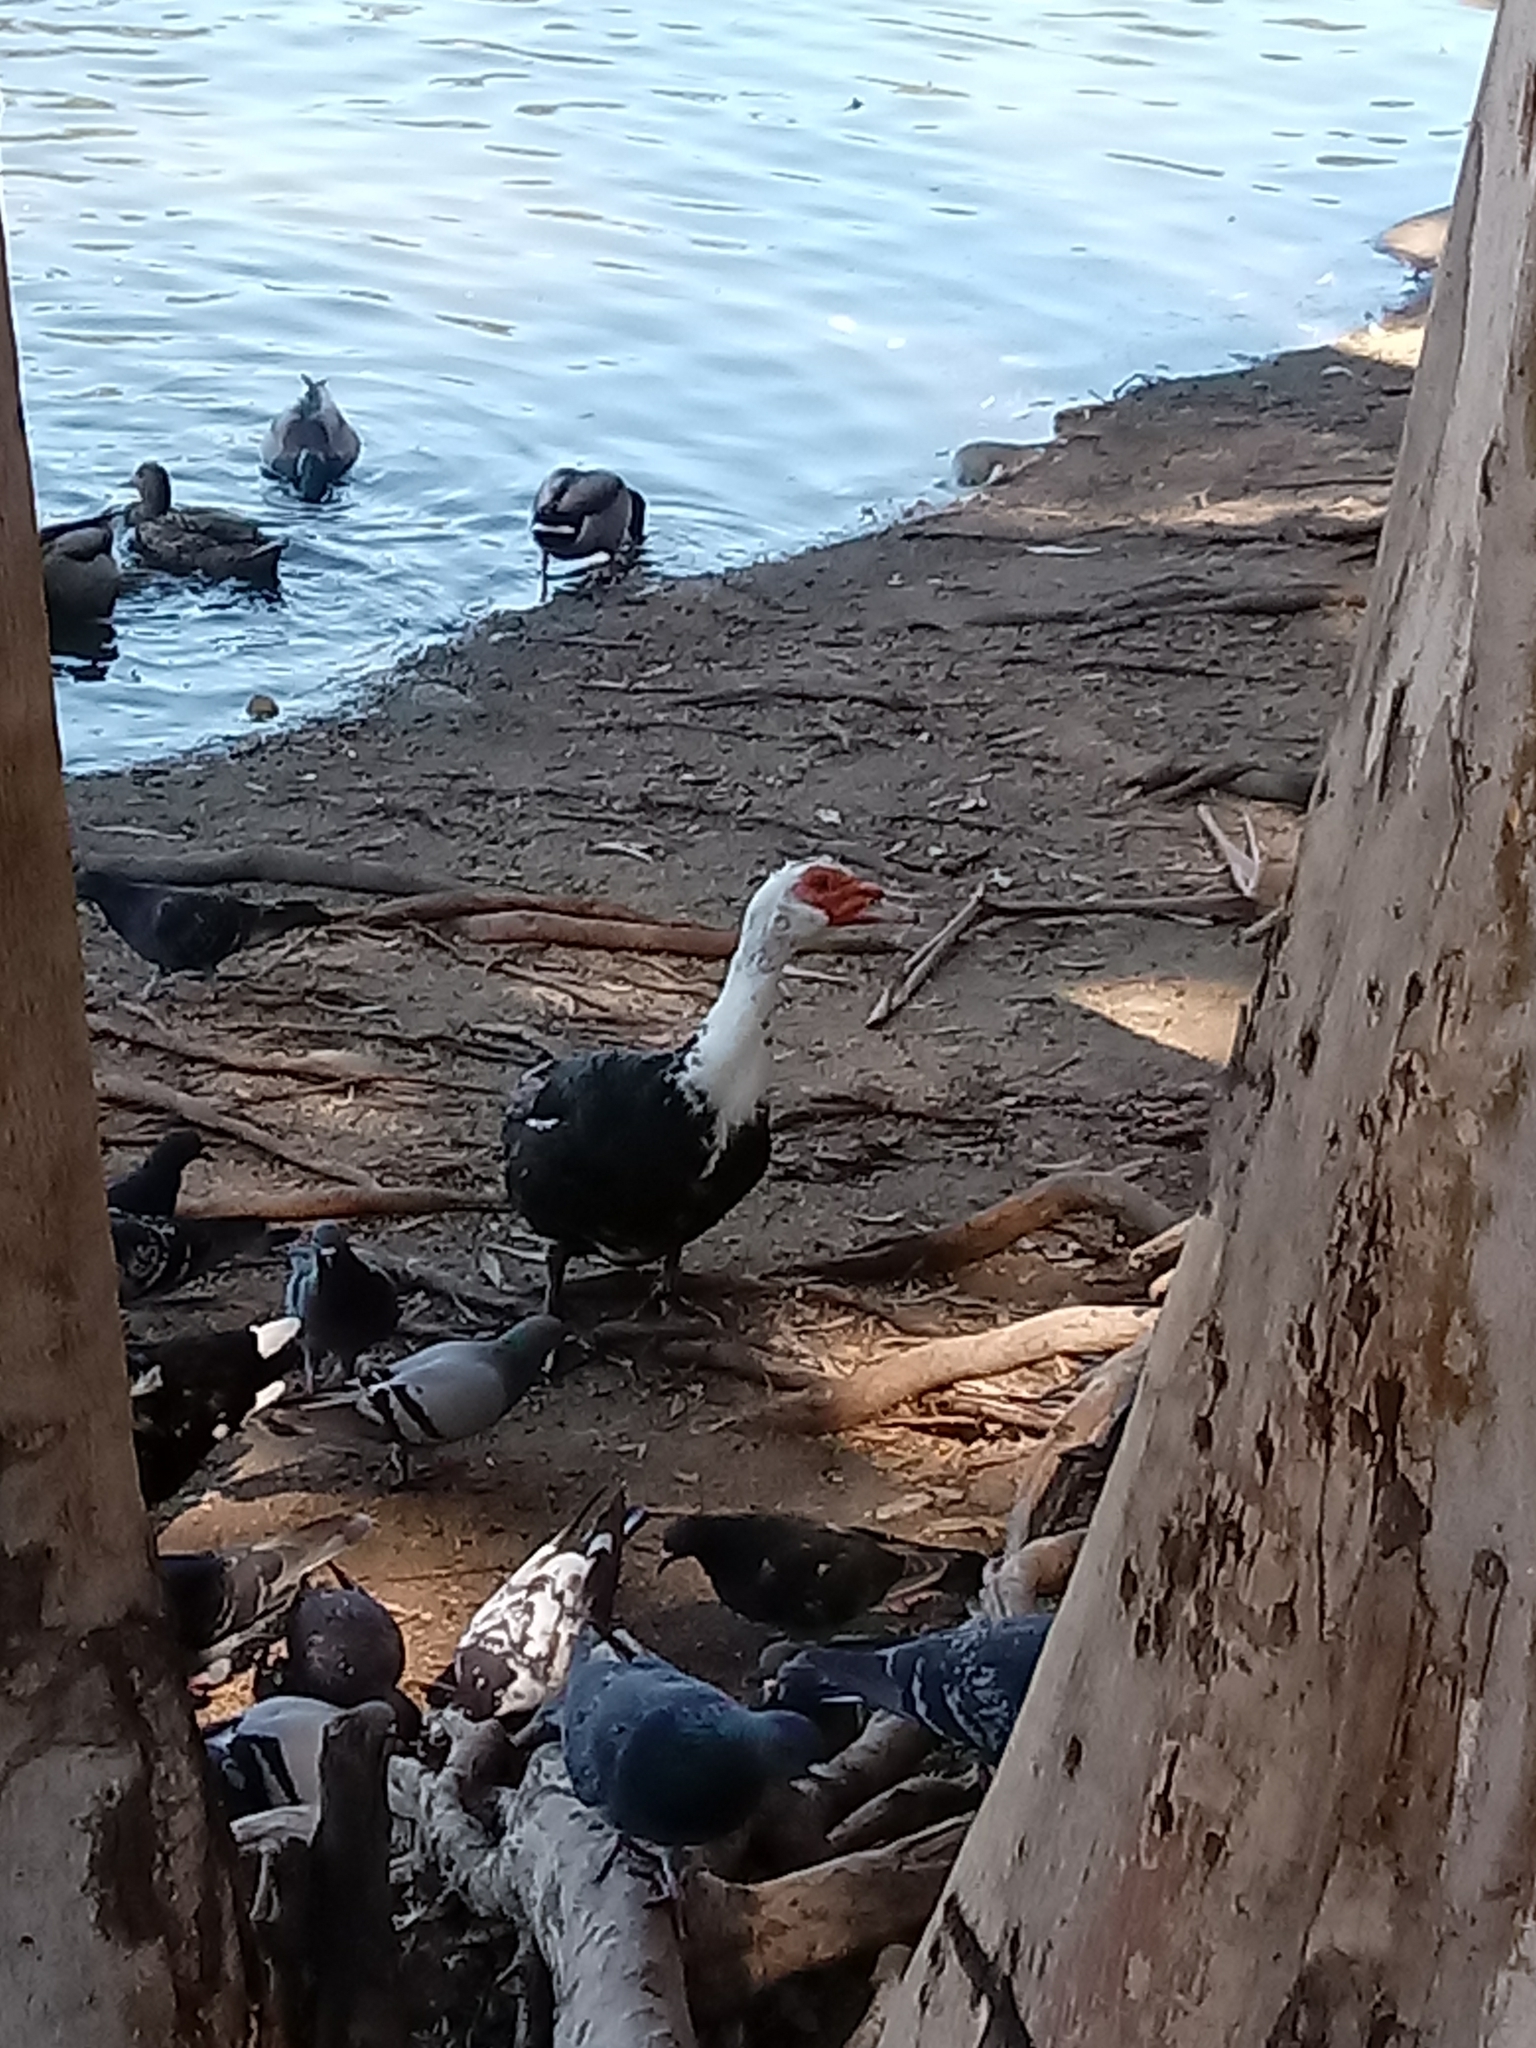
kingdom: Animalia
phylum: Chordata
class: Aves
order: Anseriformes
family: Anatidae
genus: Cairina
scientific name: Cairina moschata
